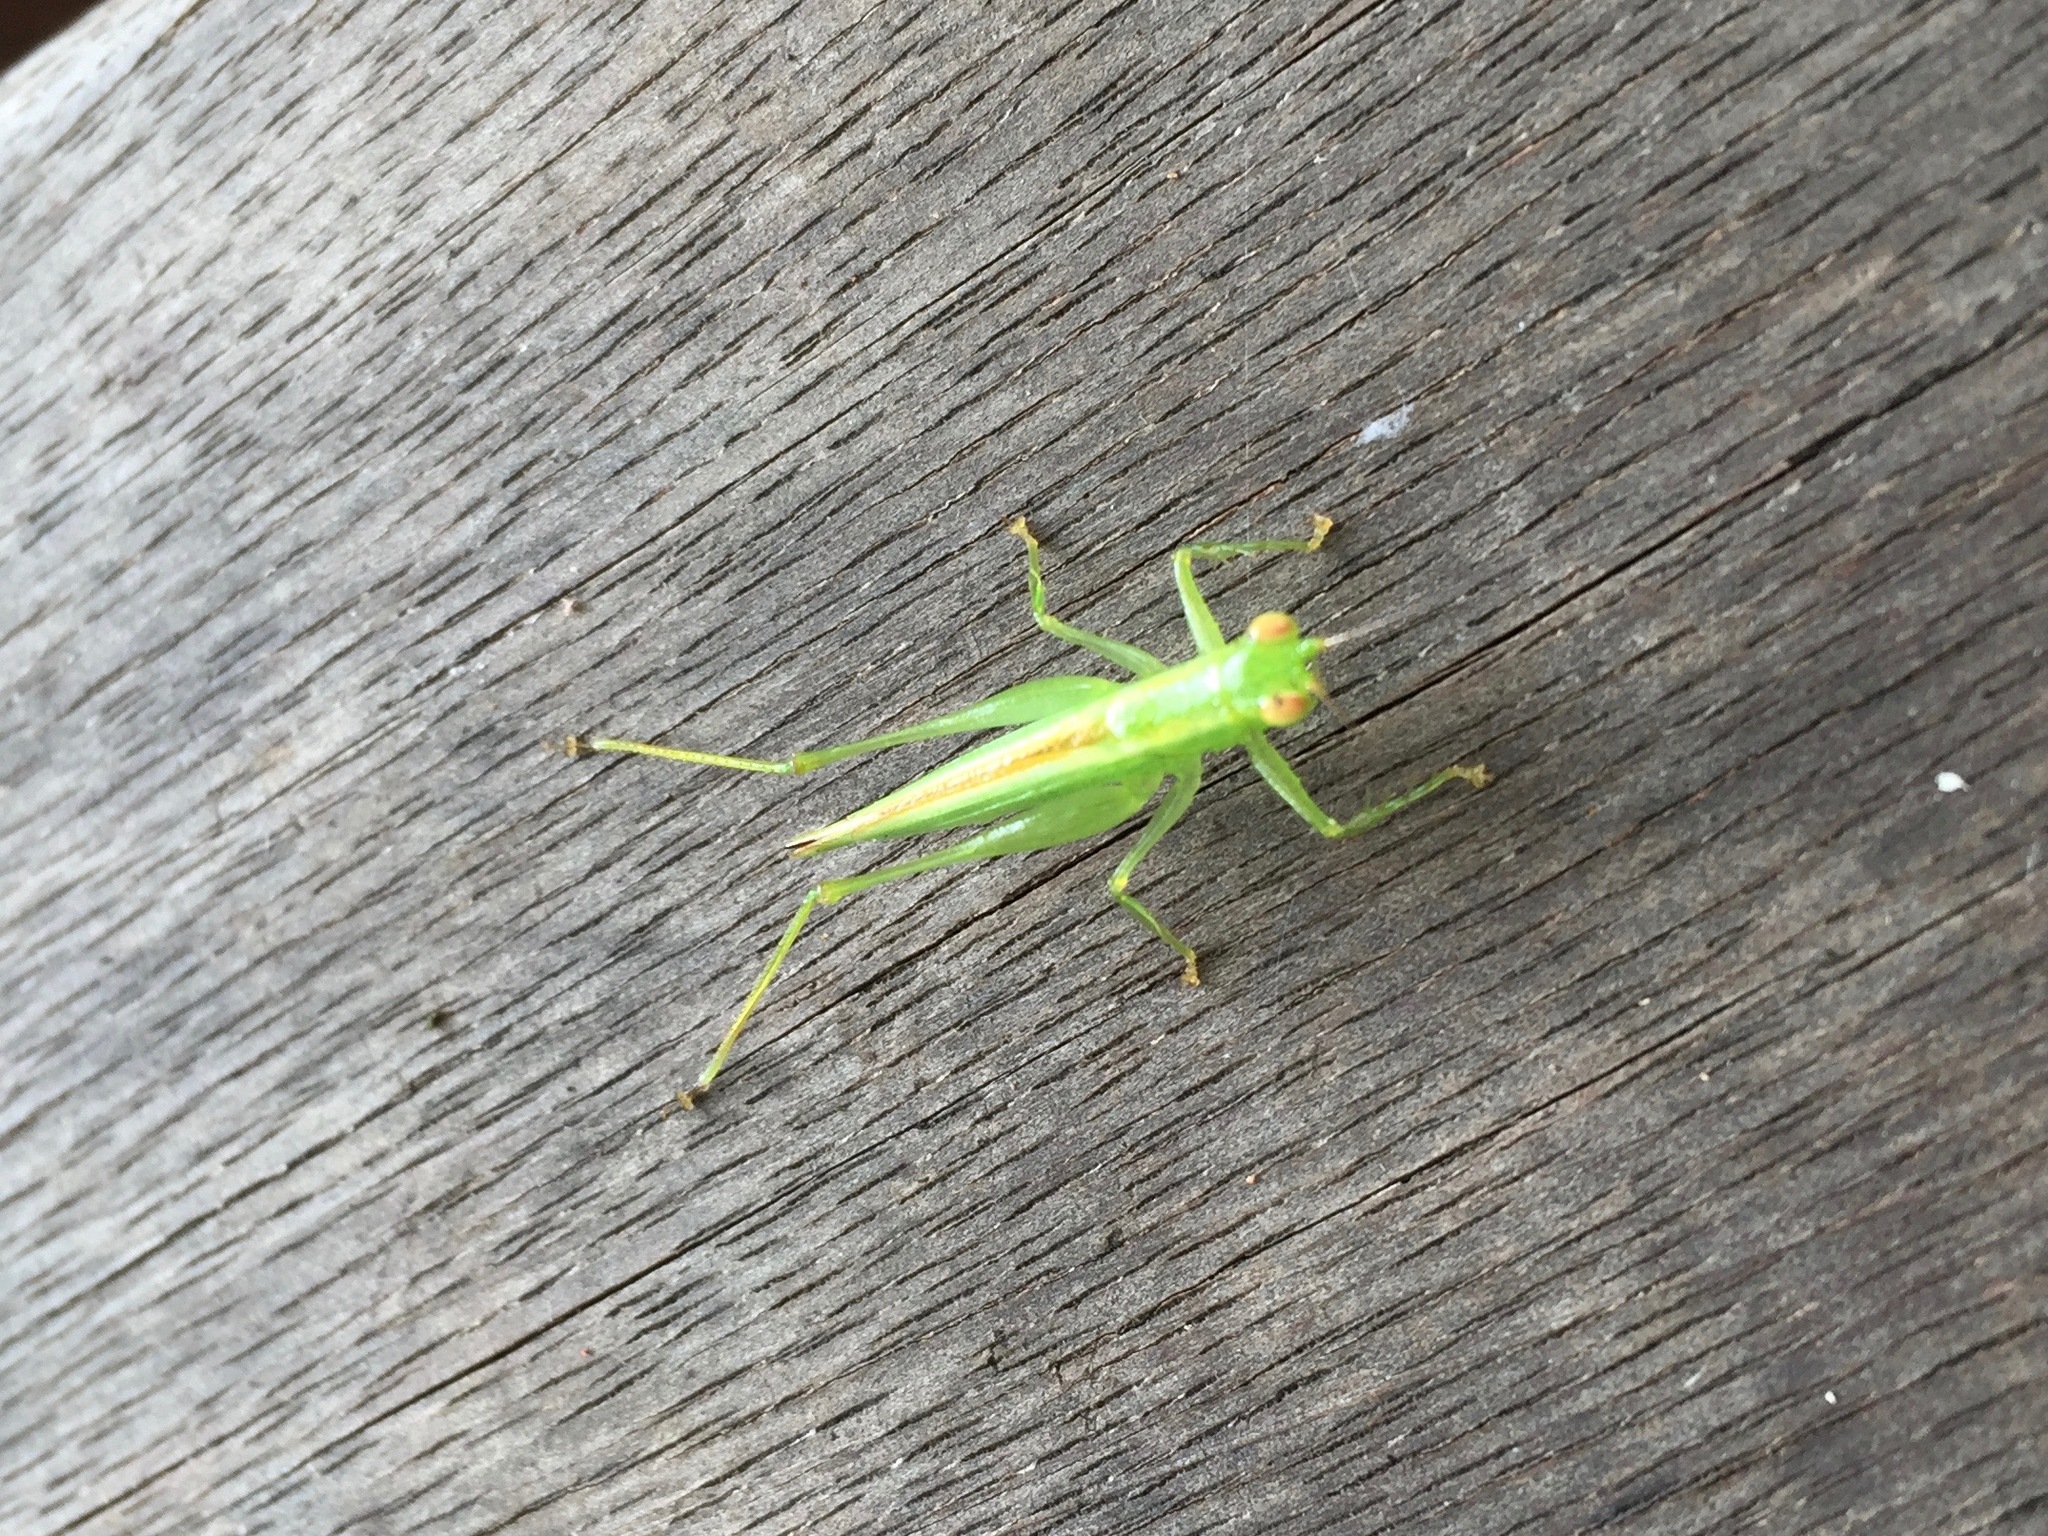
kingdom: Animalia
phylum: Arthropoda
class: Insecta
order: Orthoptera
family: Tettigoniidae
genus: Austrophlugis
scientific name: Austrophlugis debaari
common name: Debaar's swayer
